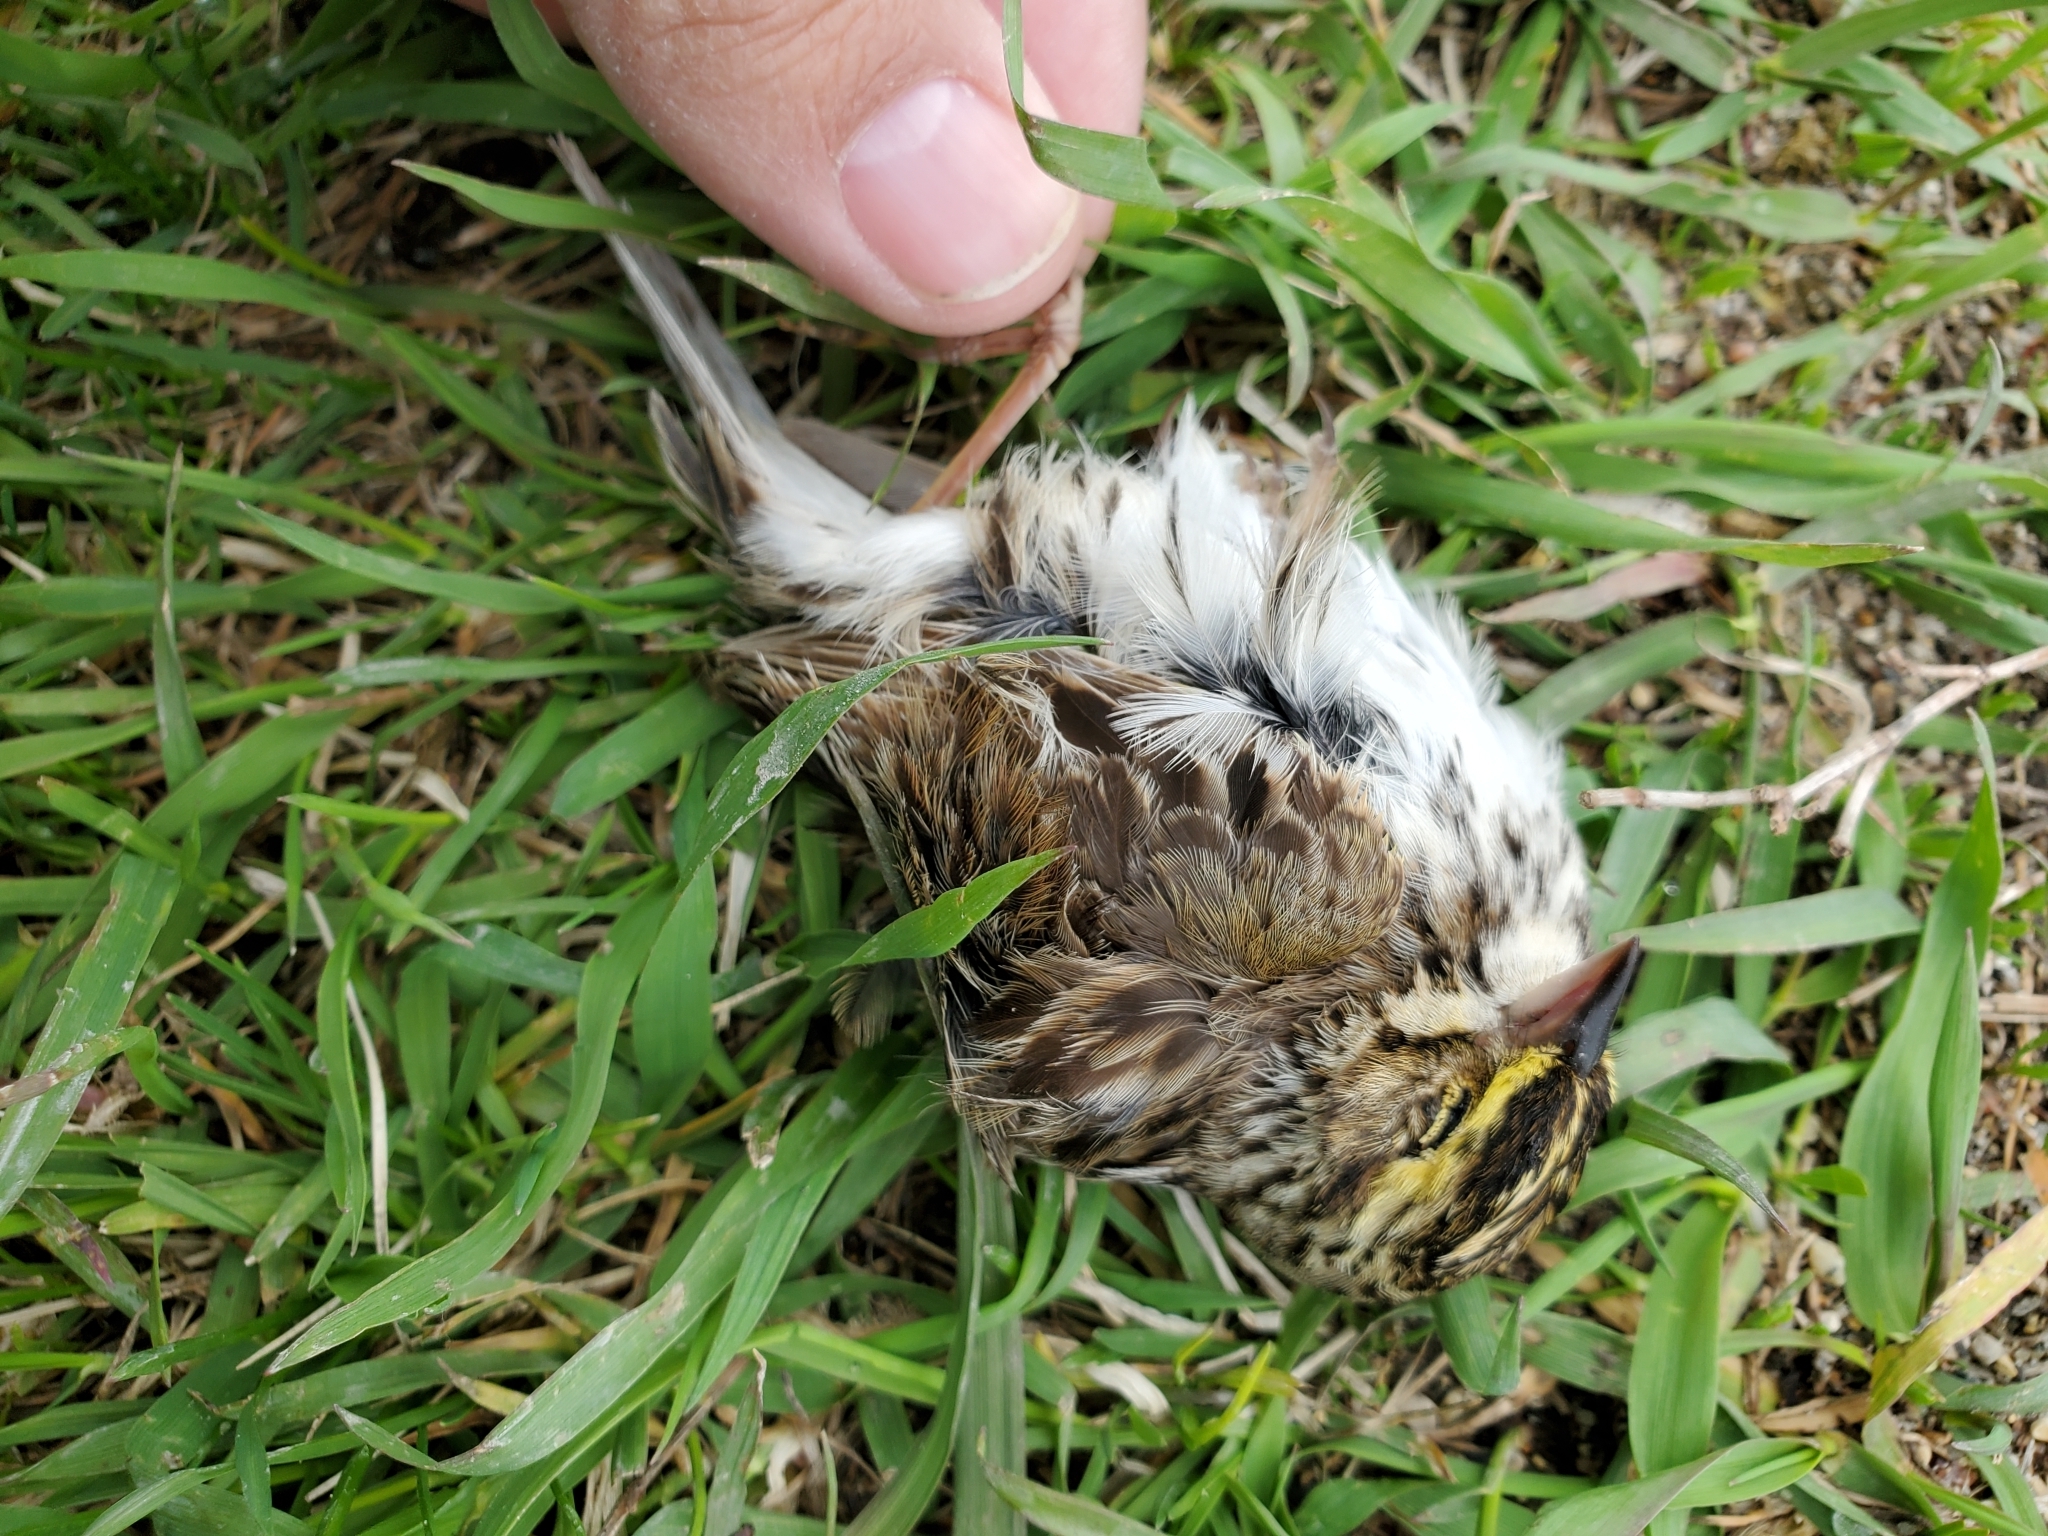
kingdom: Animalia
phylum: Chordata
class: Aves
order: Passeriformes
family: Passerellidae
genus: Passerculus
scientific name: Passerculus sandwichensis
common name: Savannah sparrow
